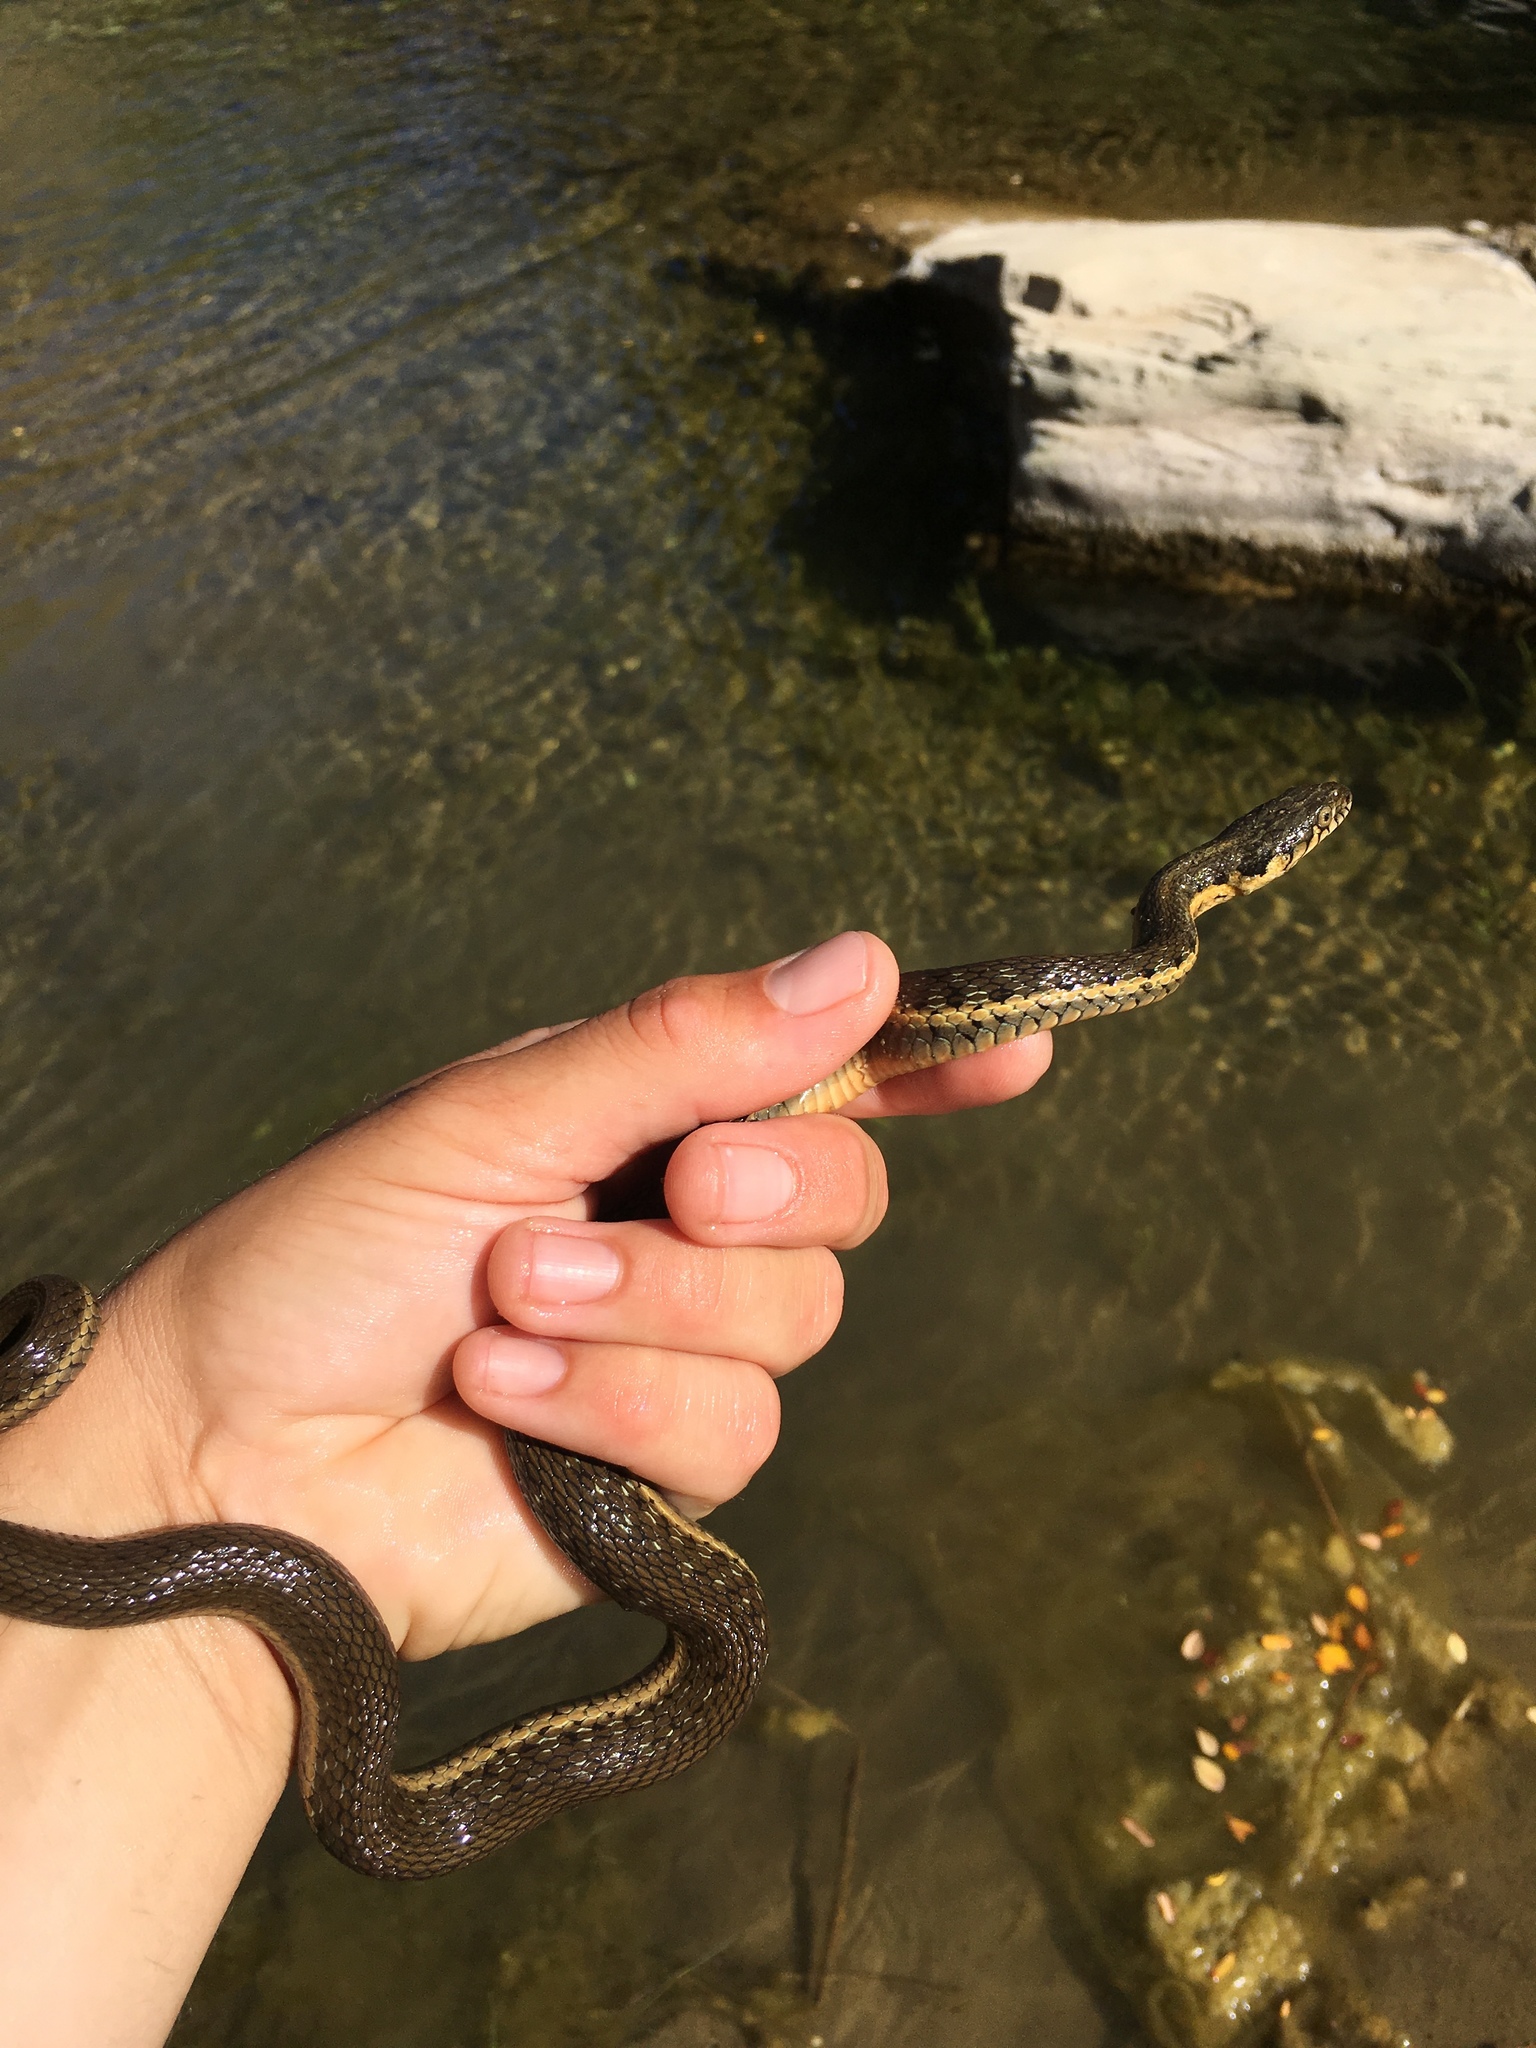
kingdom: Animalia
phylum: Chordata
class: Squamata
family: Colubridae
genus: Thamnophis
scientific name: Thamnophis hammondii
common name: Two-striped garter snake
